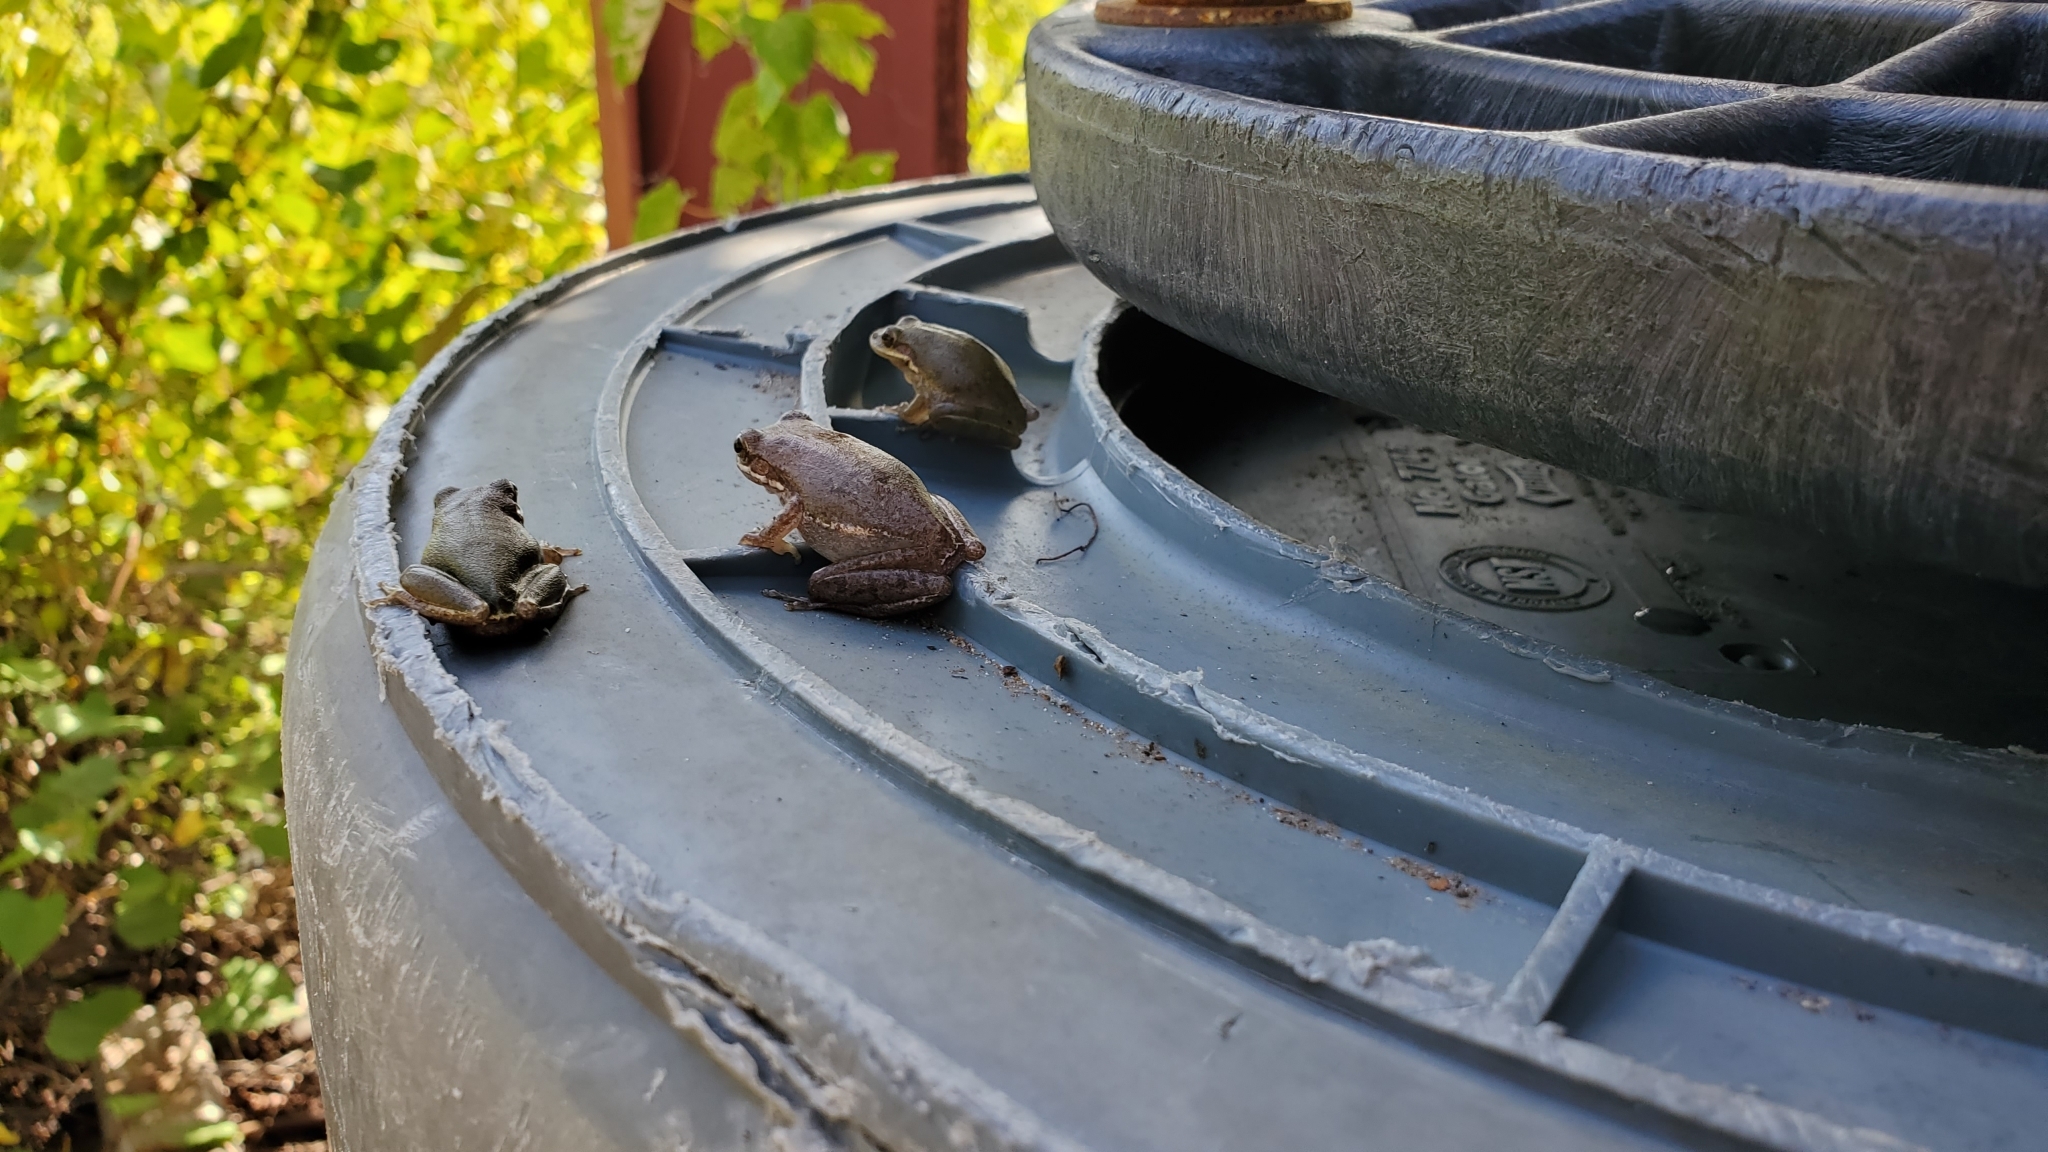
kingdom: Animalia
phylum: Chordata
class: Amphibia
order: Anura
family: Hylidae
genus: Dryophytes
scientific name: Dryophytes squirellus
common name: Squirrel treefrog
